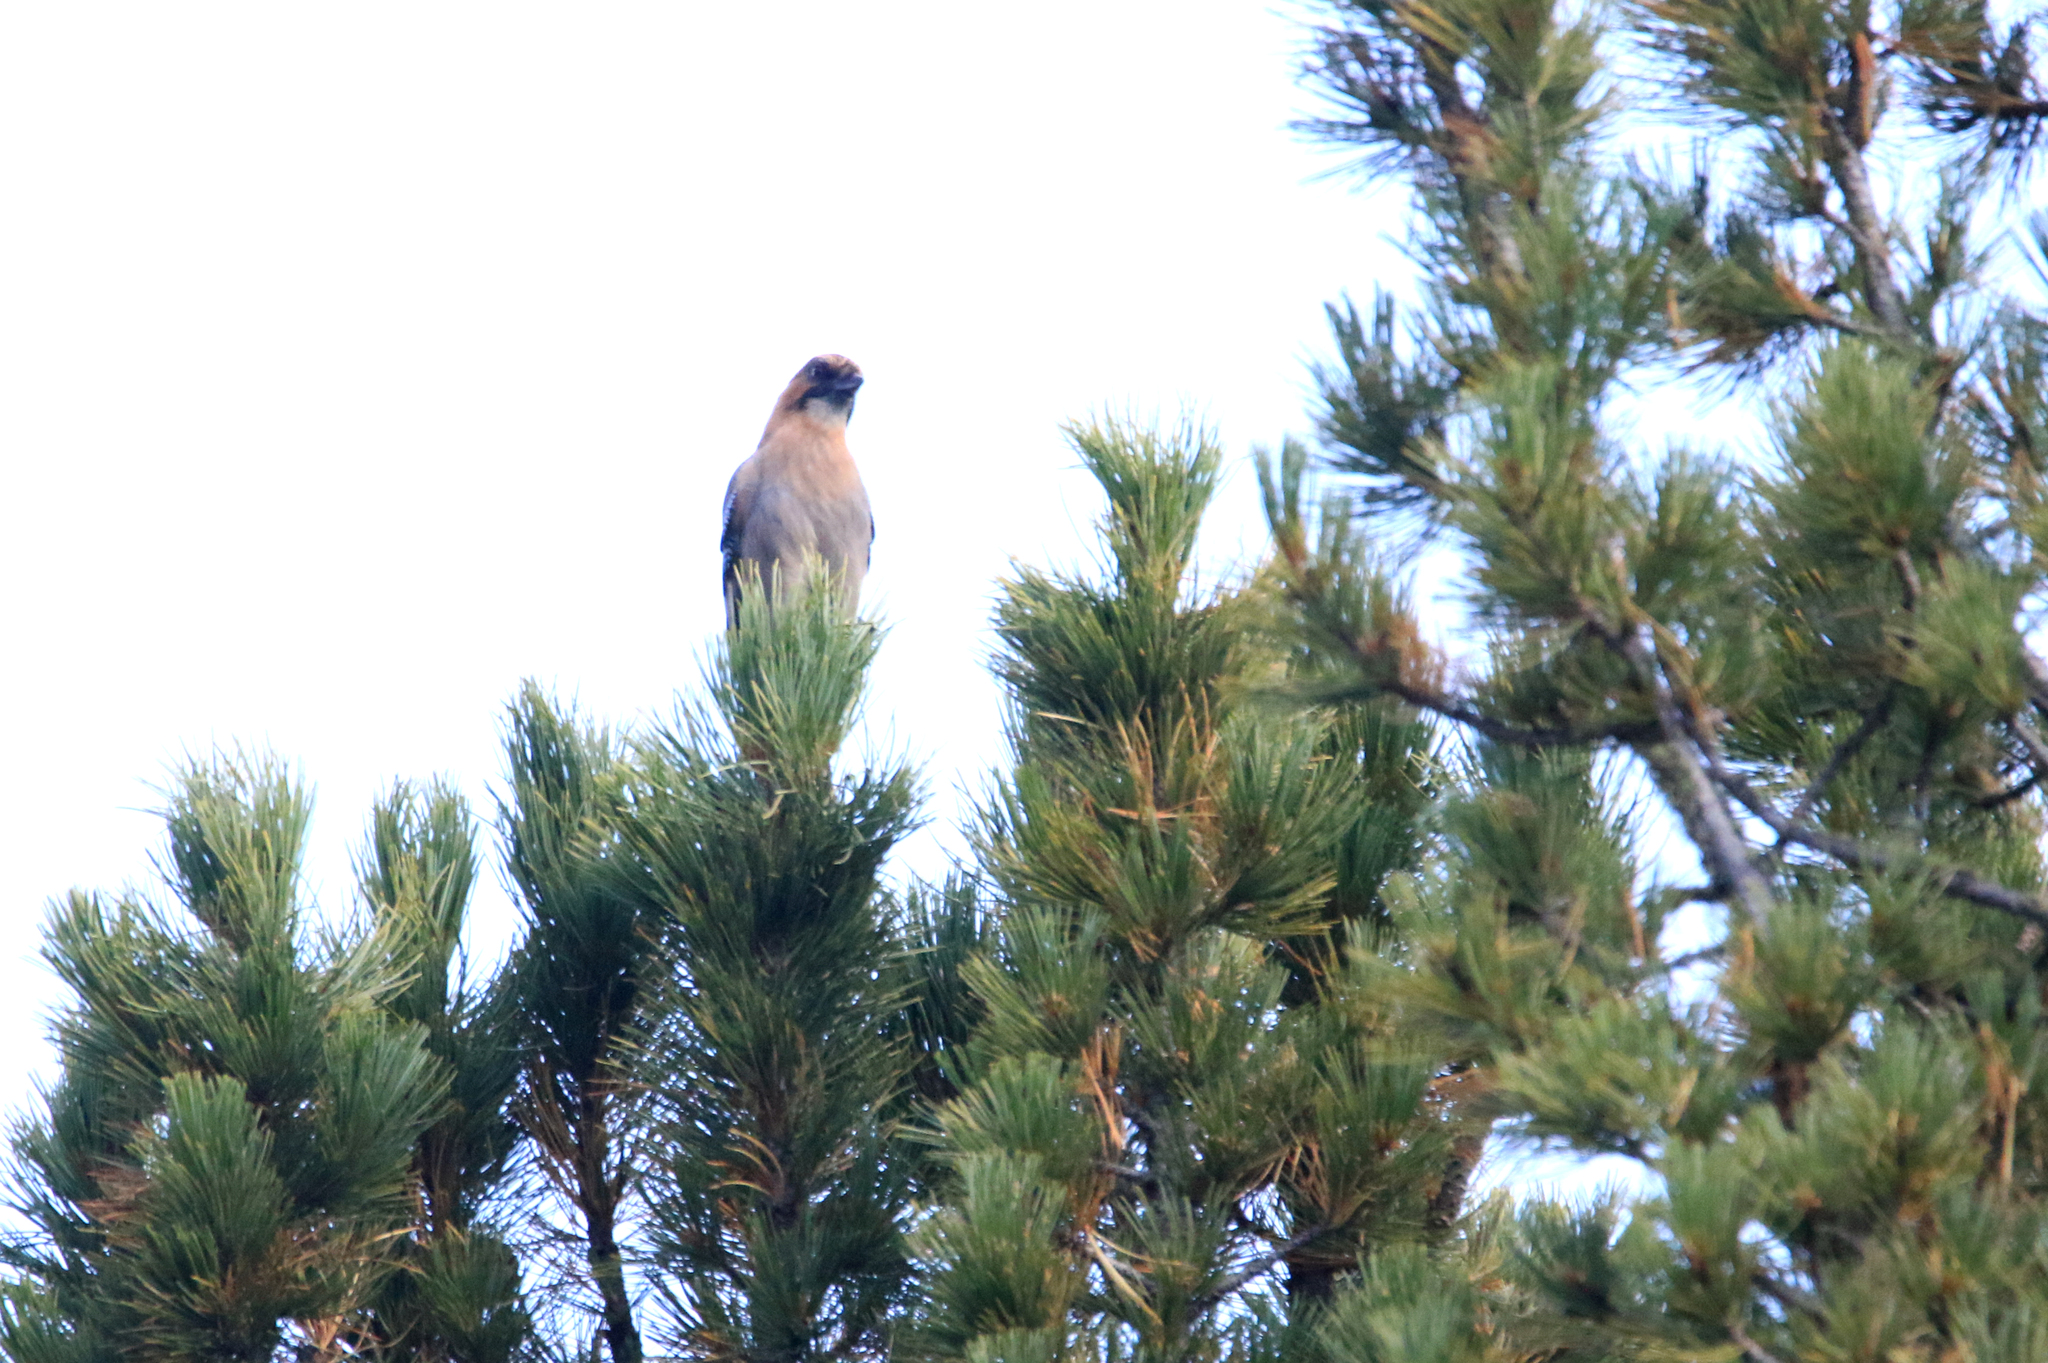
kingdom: Animalia
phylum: Chordata
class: Aves
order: Passeriformes
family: Corvidae
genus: Garrulus
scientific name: Garrulus glandarius
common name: Eurasian jay
